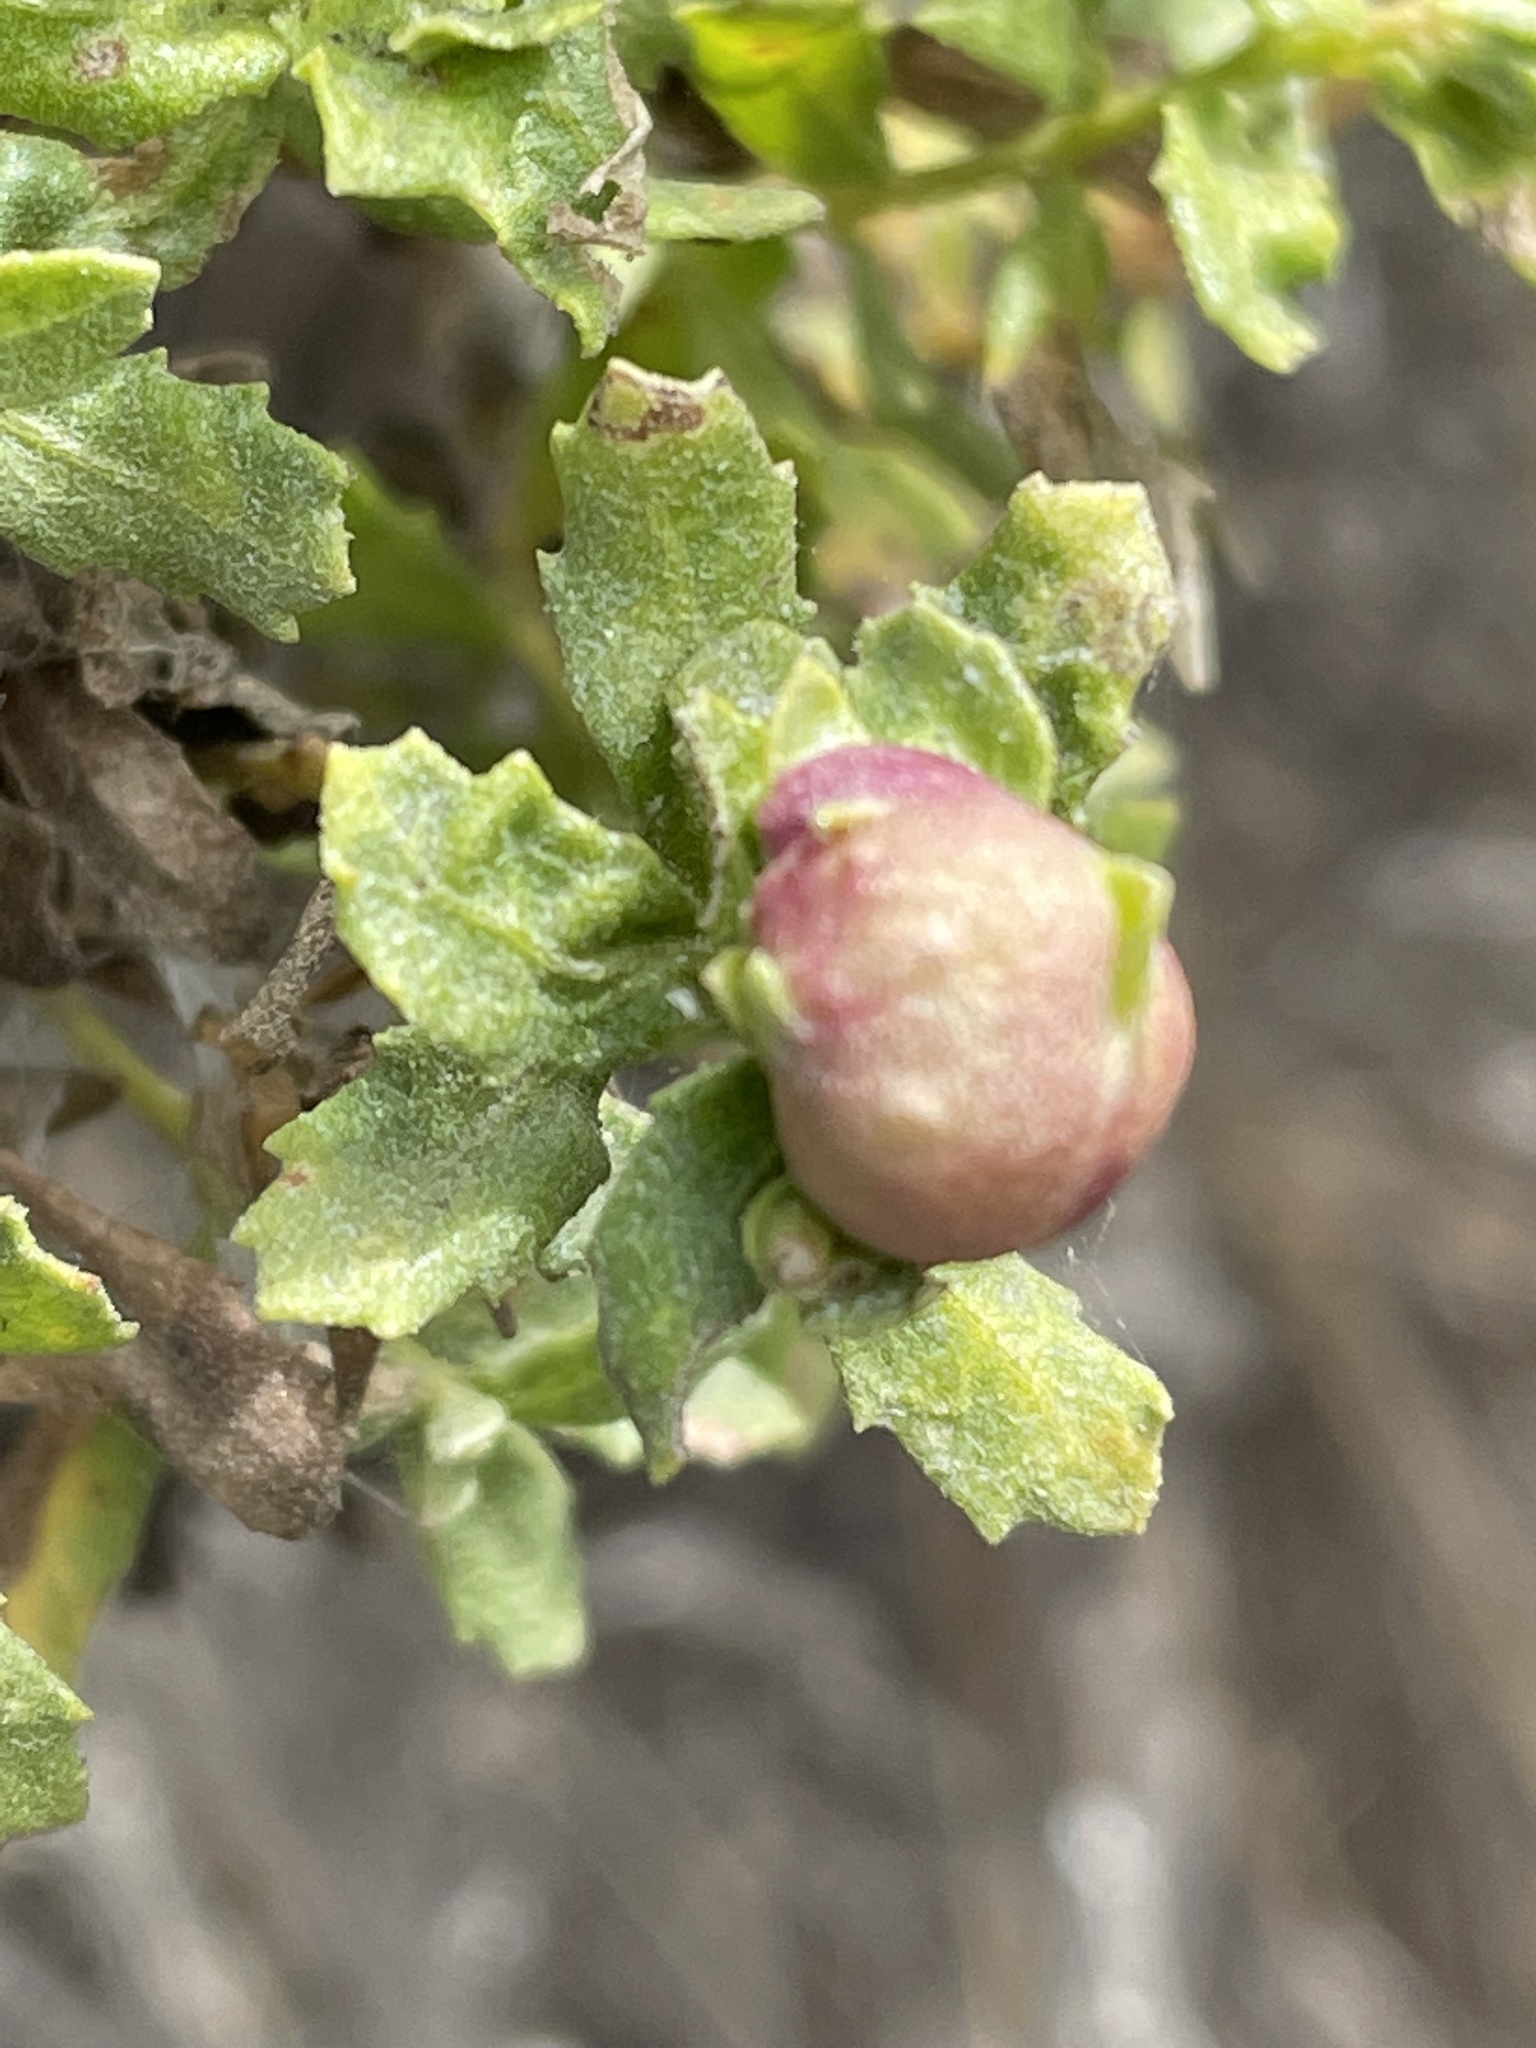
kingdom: Animalia
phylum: Arthropoda
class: Insecta
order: Diptera
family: Cecidomyiidae
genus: Rhopalomyia
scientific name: Rhopalomyia californica
